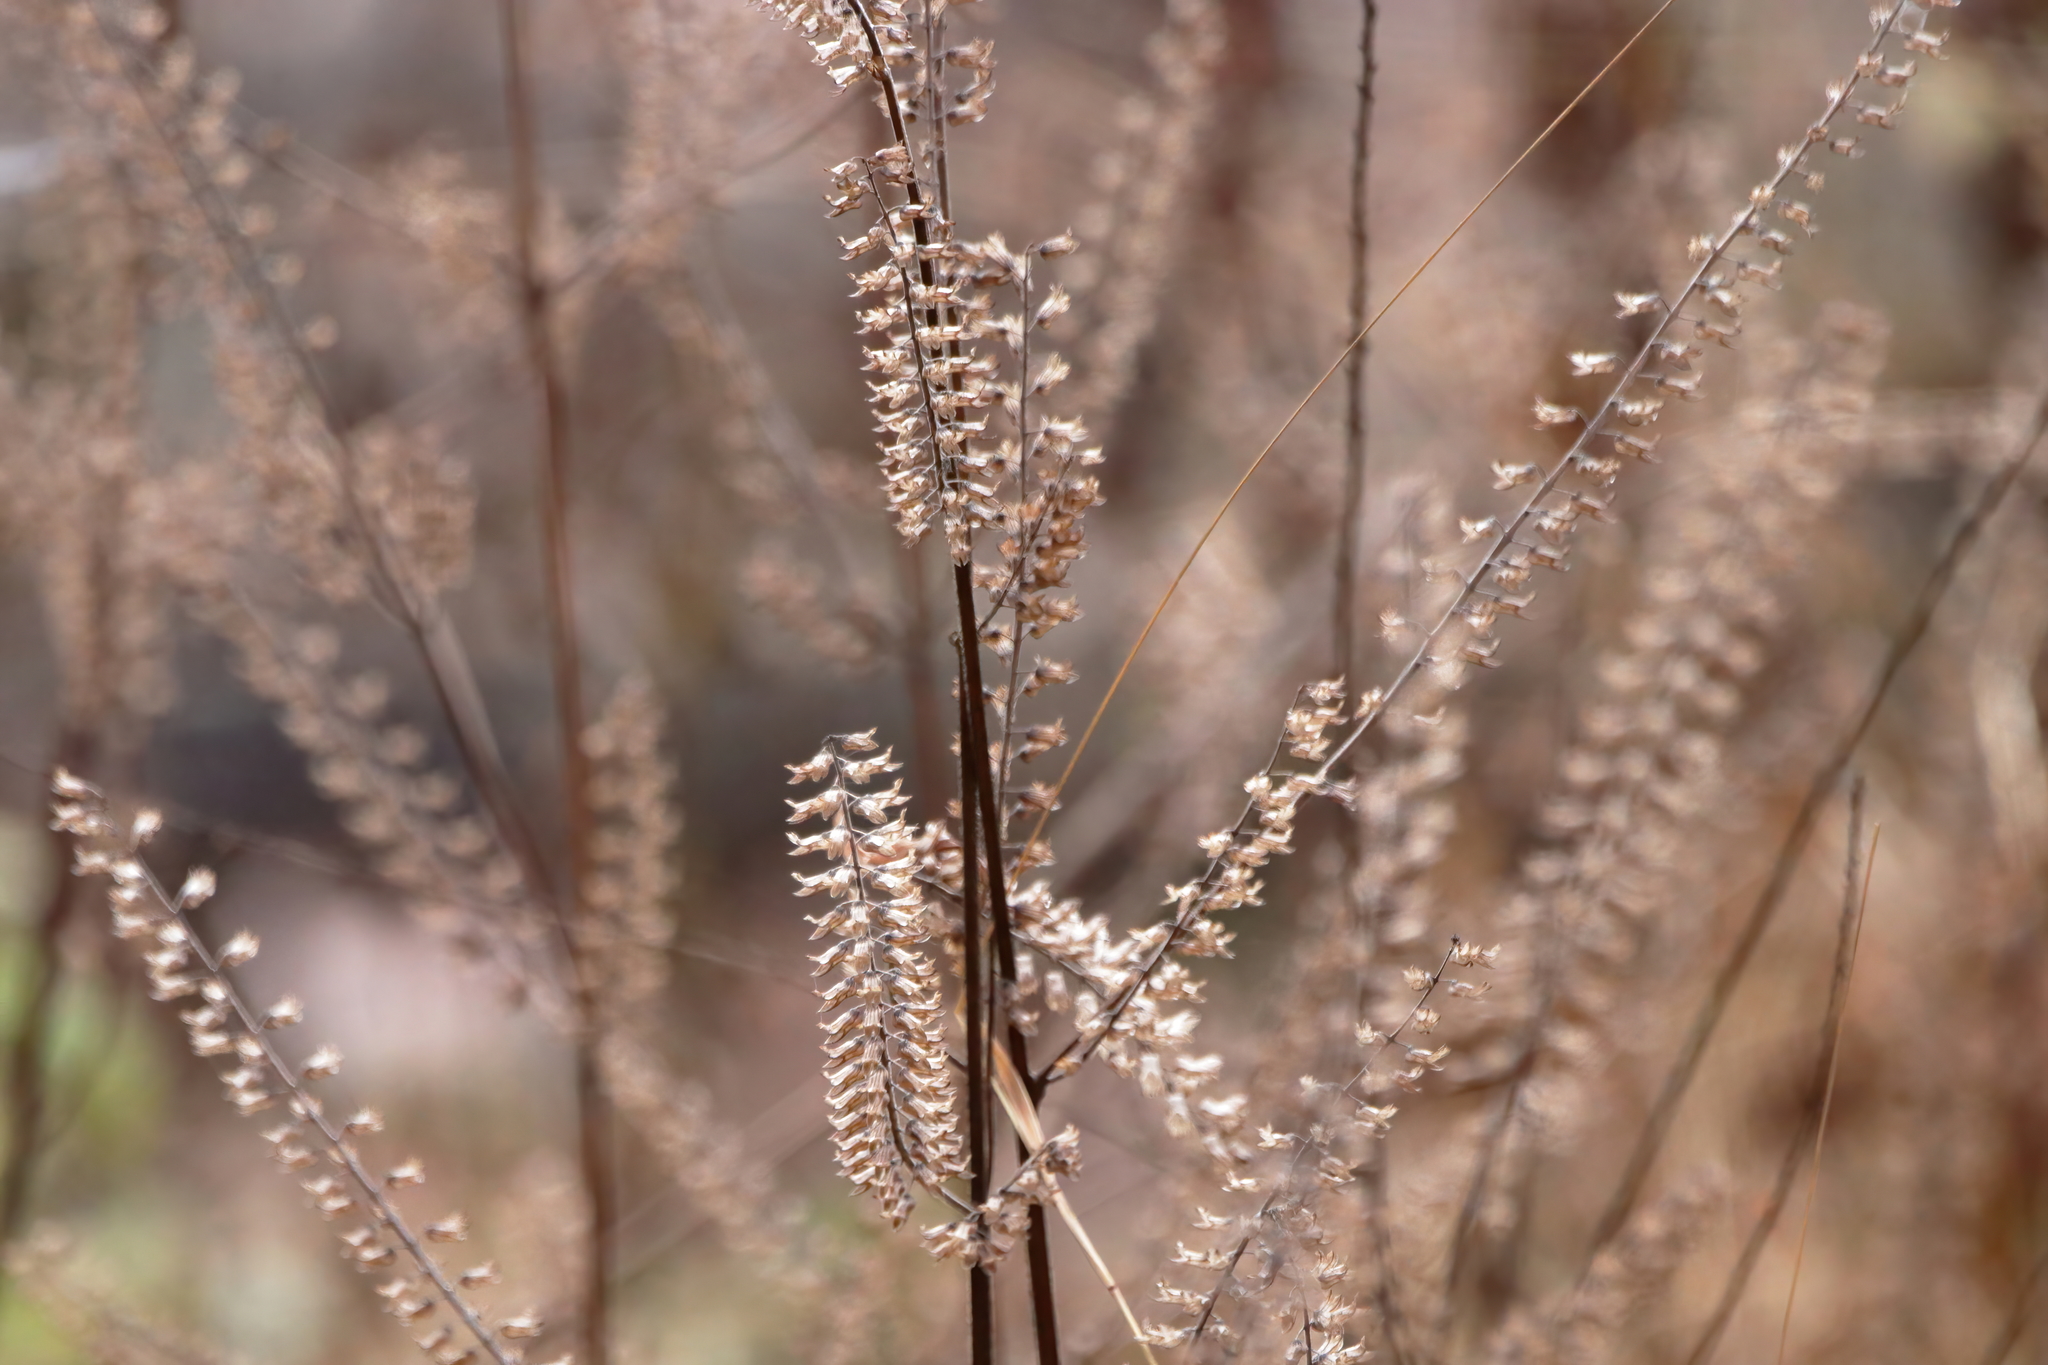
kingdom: Plantae
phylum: Tracheophyta
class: Magnoliopsida
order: Lamiales
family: Lamiaceae
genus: Perilla
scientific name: Perilla frutescens
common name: Perilla
